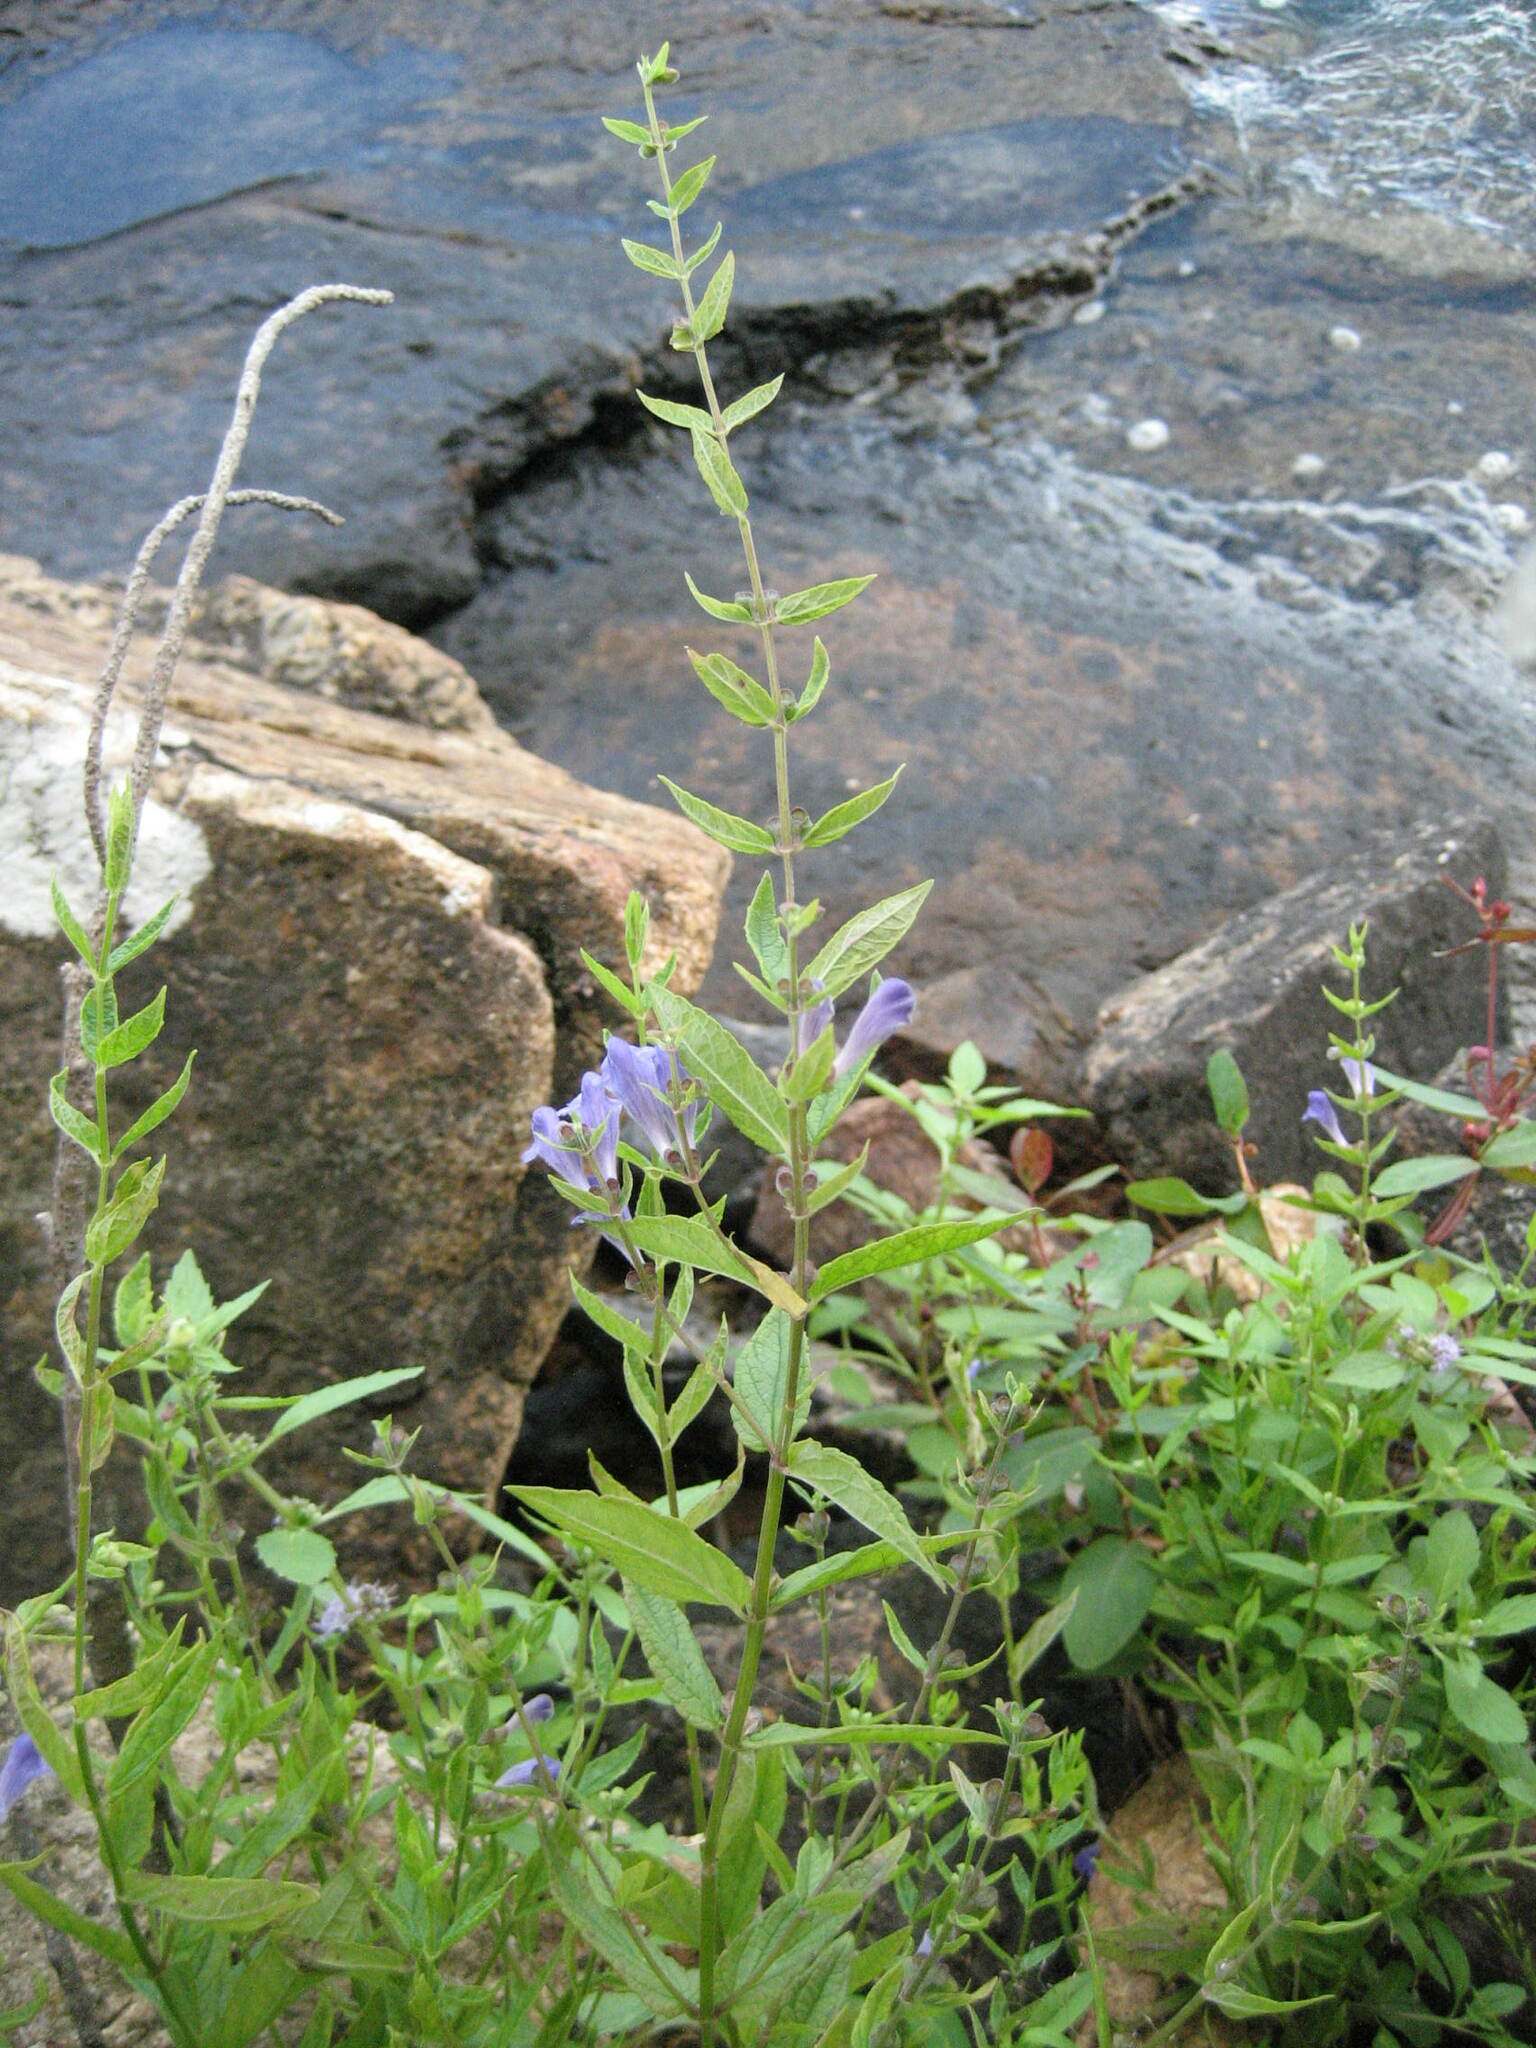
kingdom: Plantae
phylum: Tracheophyta
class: Magnoliopsida
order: Lamiales
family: Lamiaceae
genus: Scutellaria
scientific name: Scutellaria galericulata
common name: Skullcap
